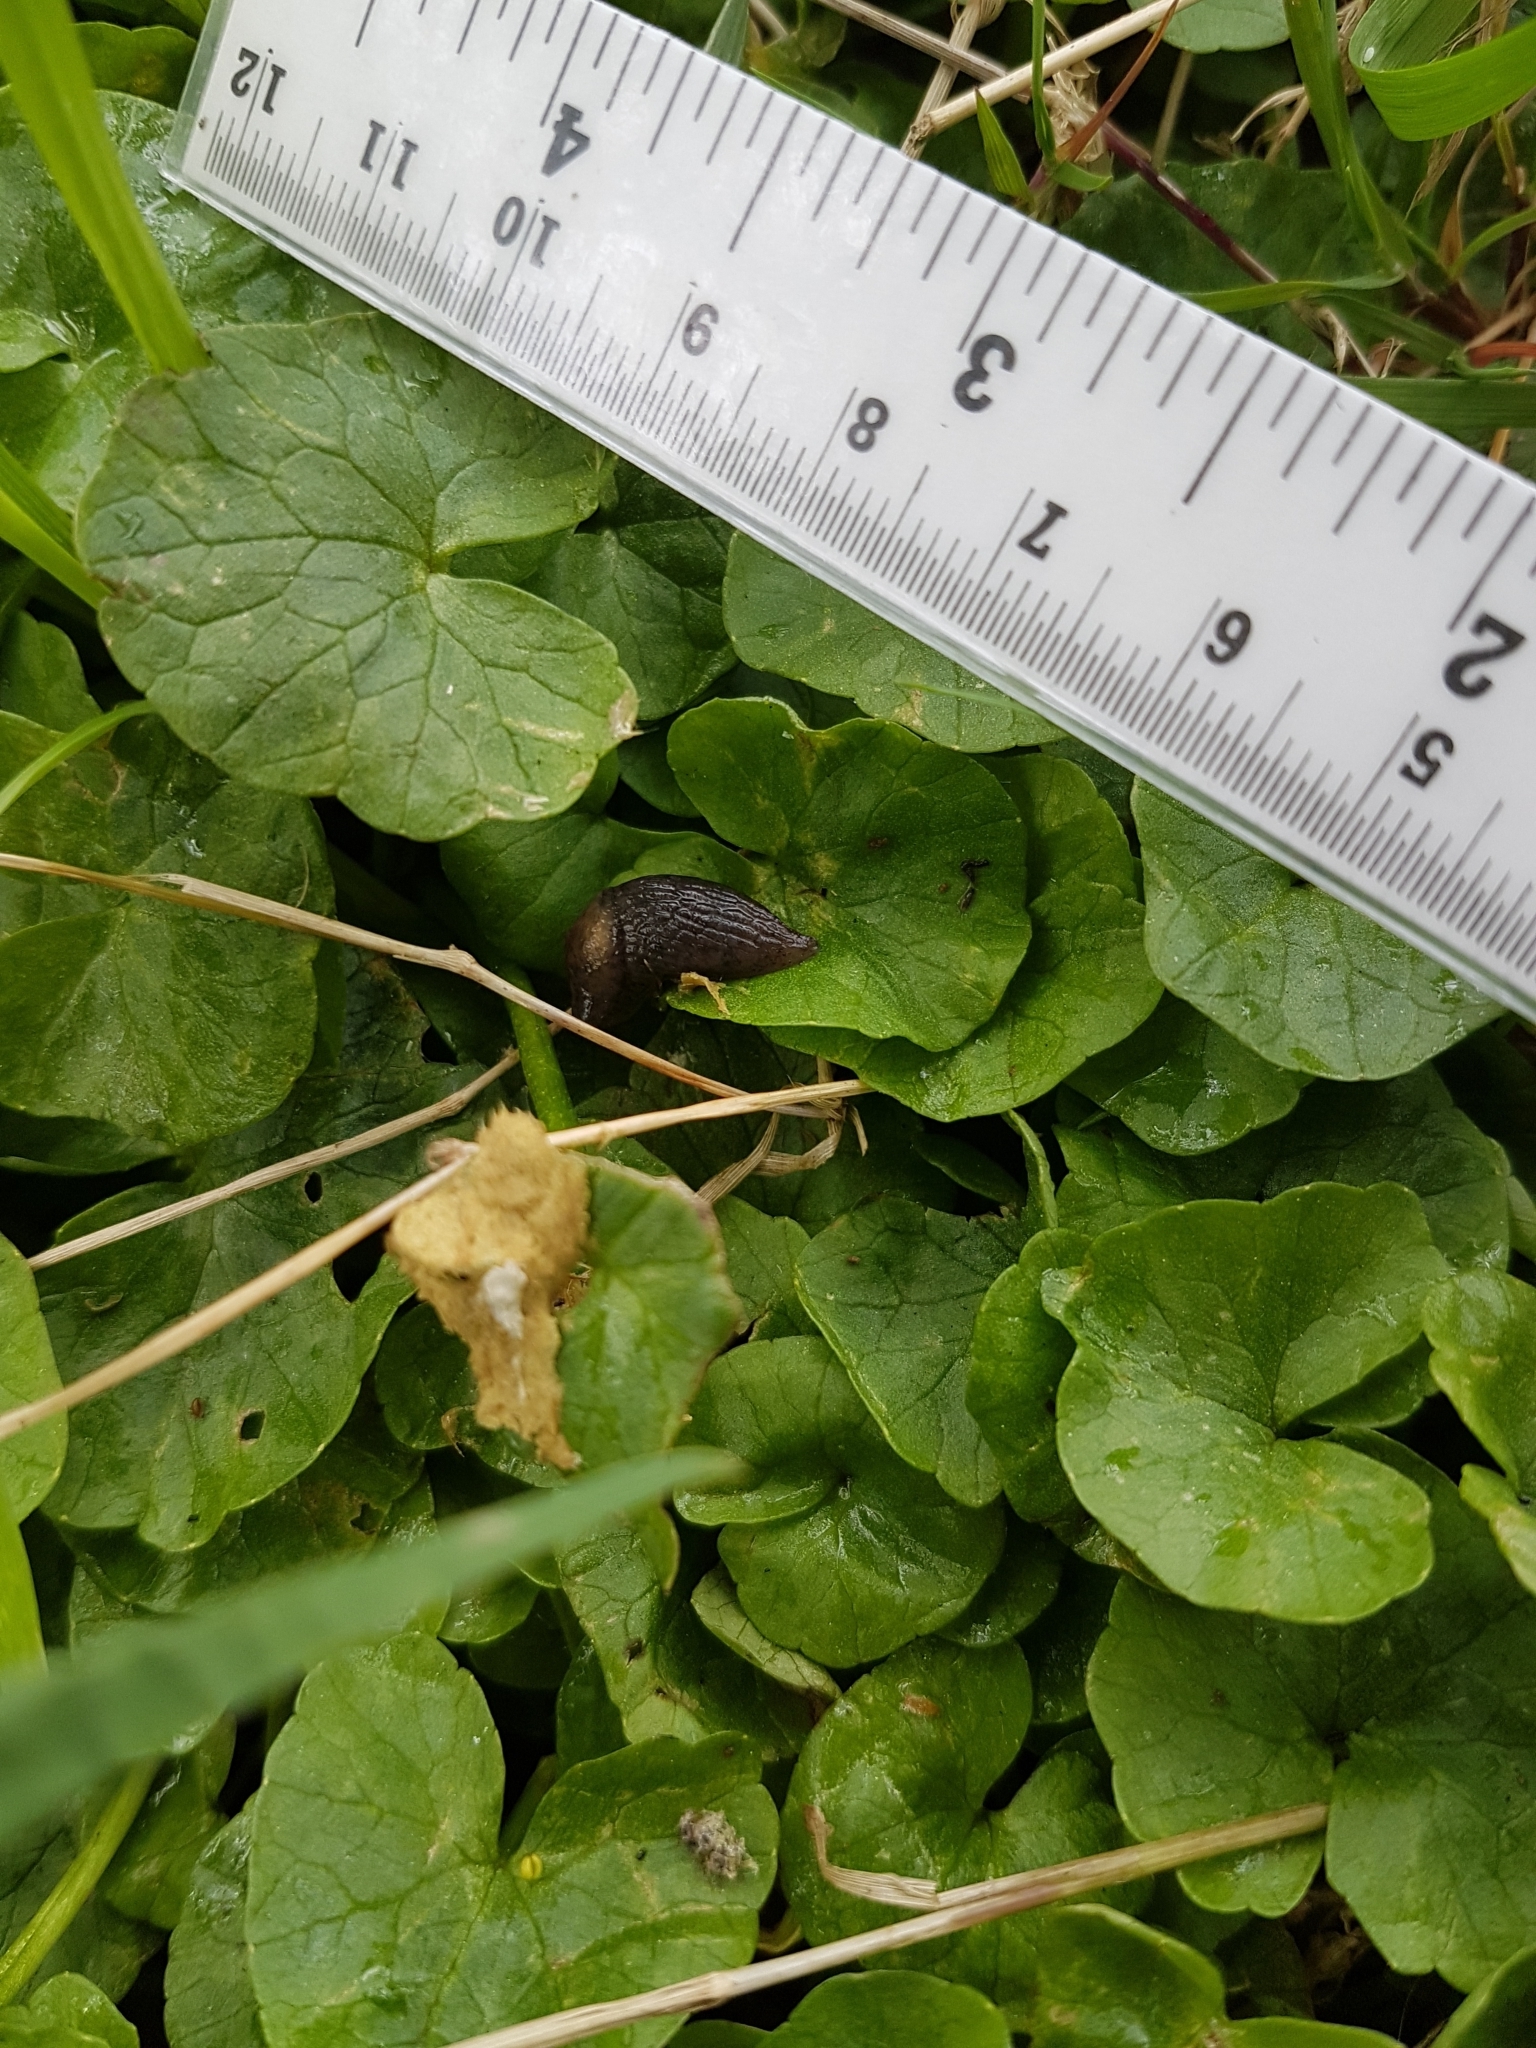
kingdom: Animalia
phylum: Mollusca
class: Gastropoda
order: Stylommatophora
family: Agriolimacidae
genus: Deroceras
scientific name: Deroceras invadens
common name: Caruana's slug
